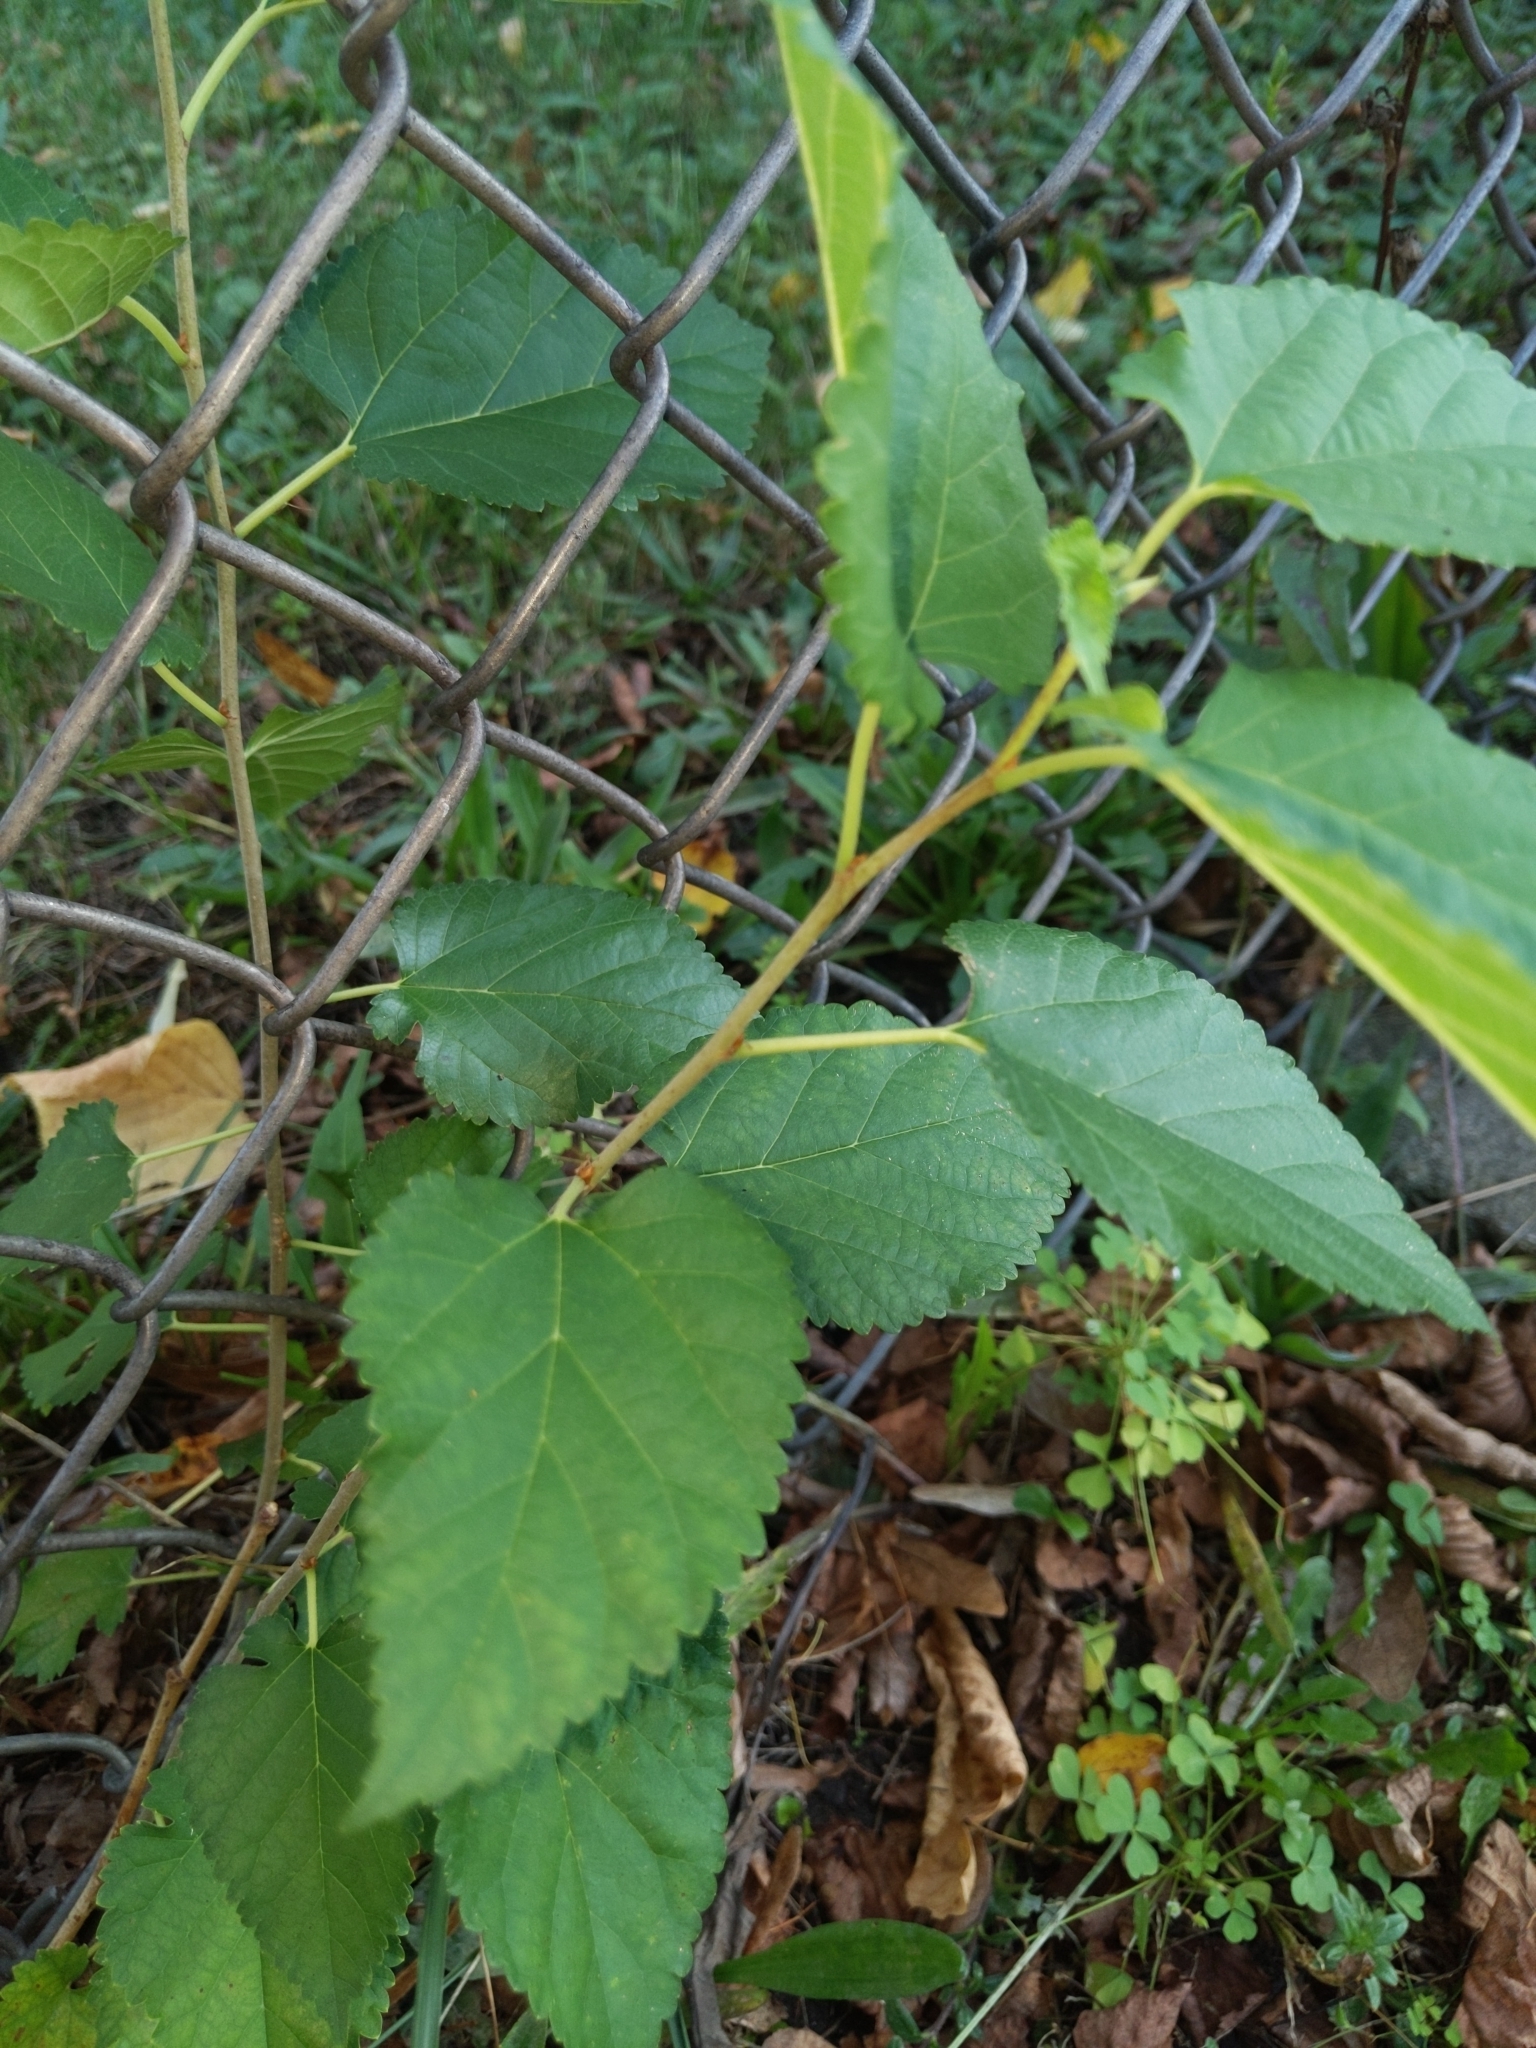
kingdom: Plantae
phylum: Tracheophyta
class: Magnoliopsida
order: Rosales
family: Moraceae
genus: Morus
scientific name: Morus alba
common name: White mulberry
